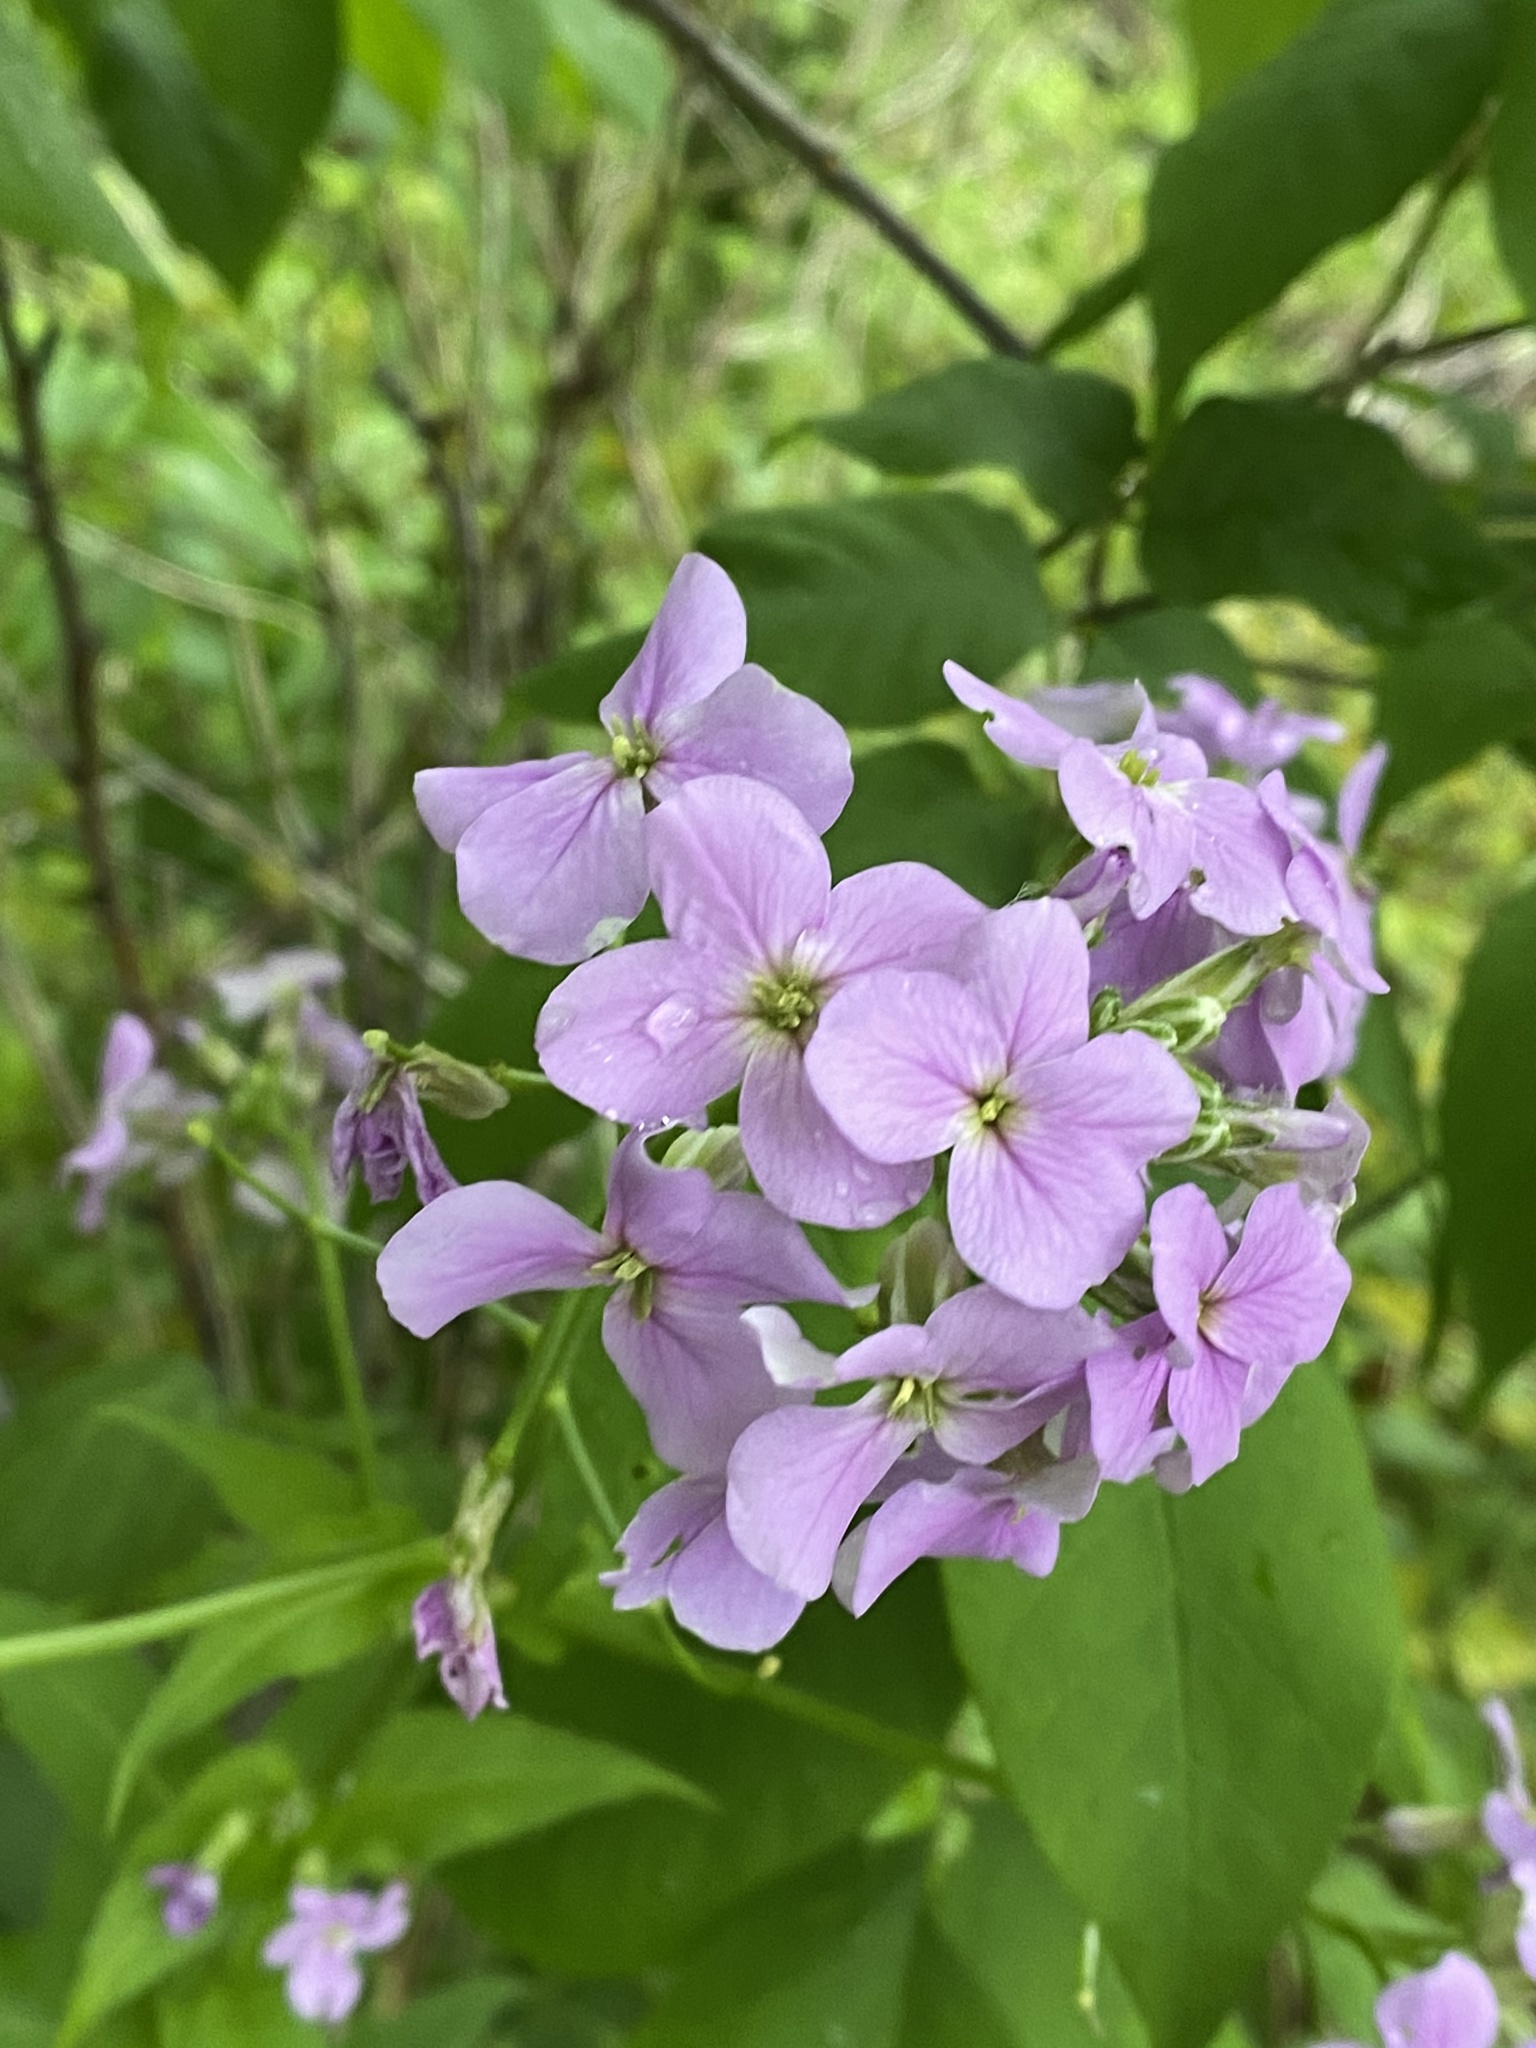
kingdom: Plantae
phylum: Tracheophyta
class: Magnoliopsida
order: Brassicales
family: Brassicaceae
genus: Hesperis
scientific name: Hesperis matronalis
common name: Dame's-violet
